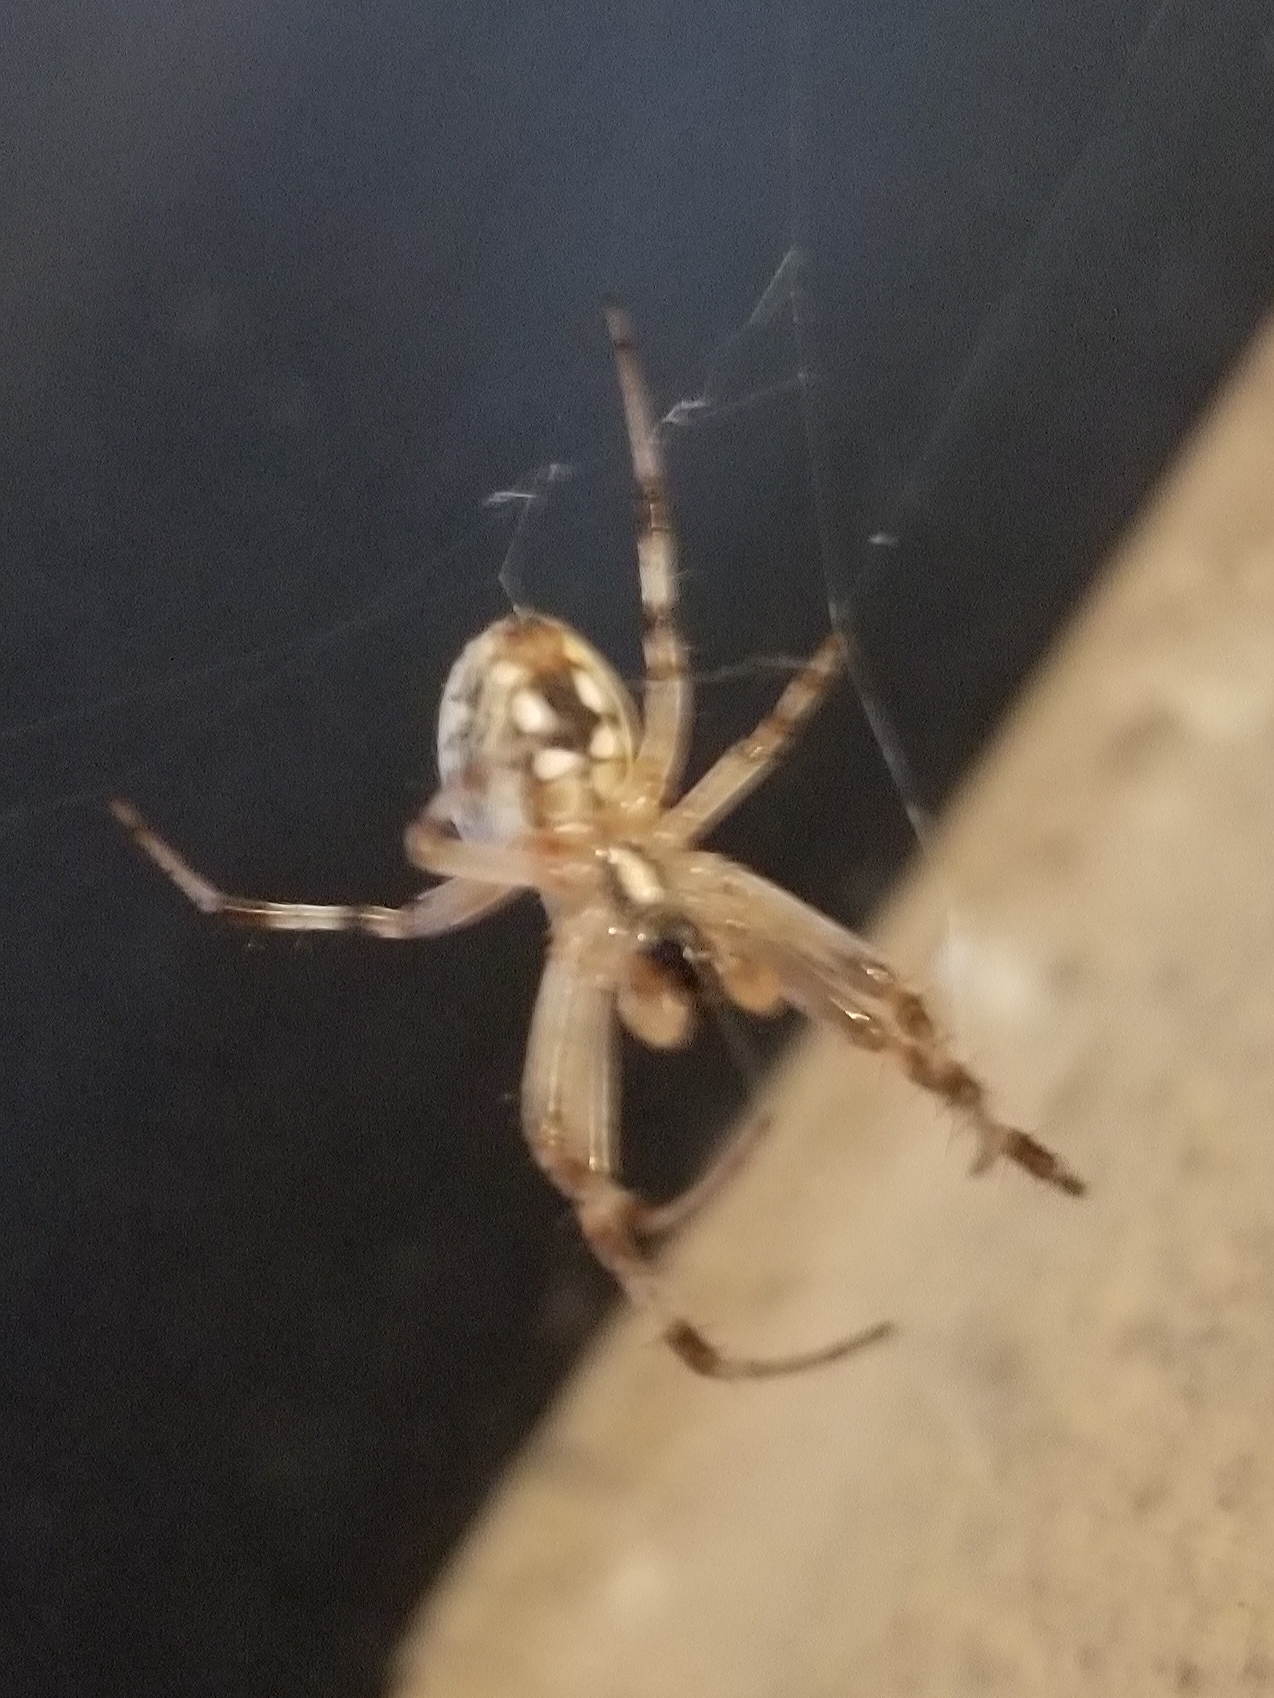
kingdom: Animalia
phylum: Arthropoda
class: Arachnida
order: Araneae
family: Araneidae
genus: Neoscona
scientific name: Neoscona oaxacensis
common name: Orb weavers
